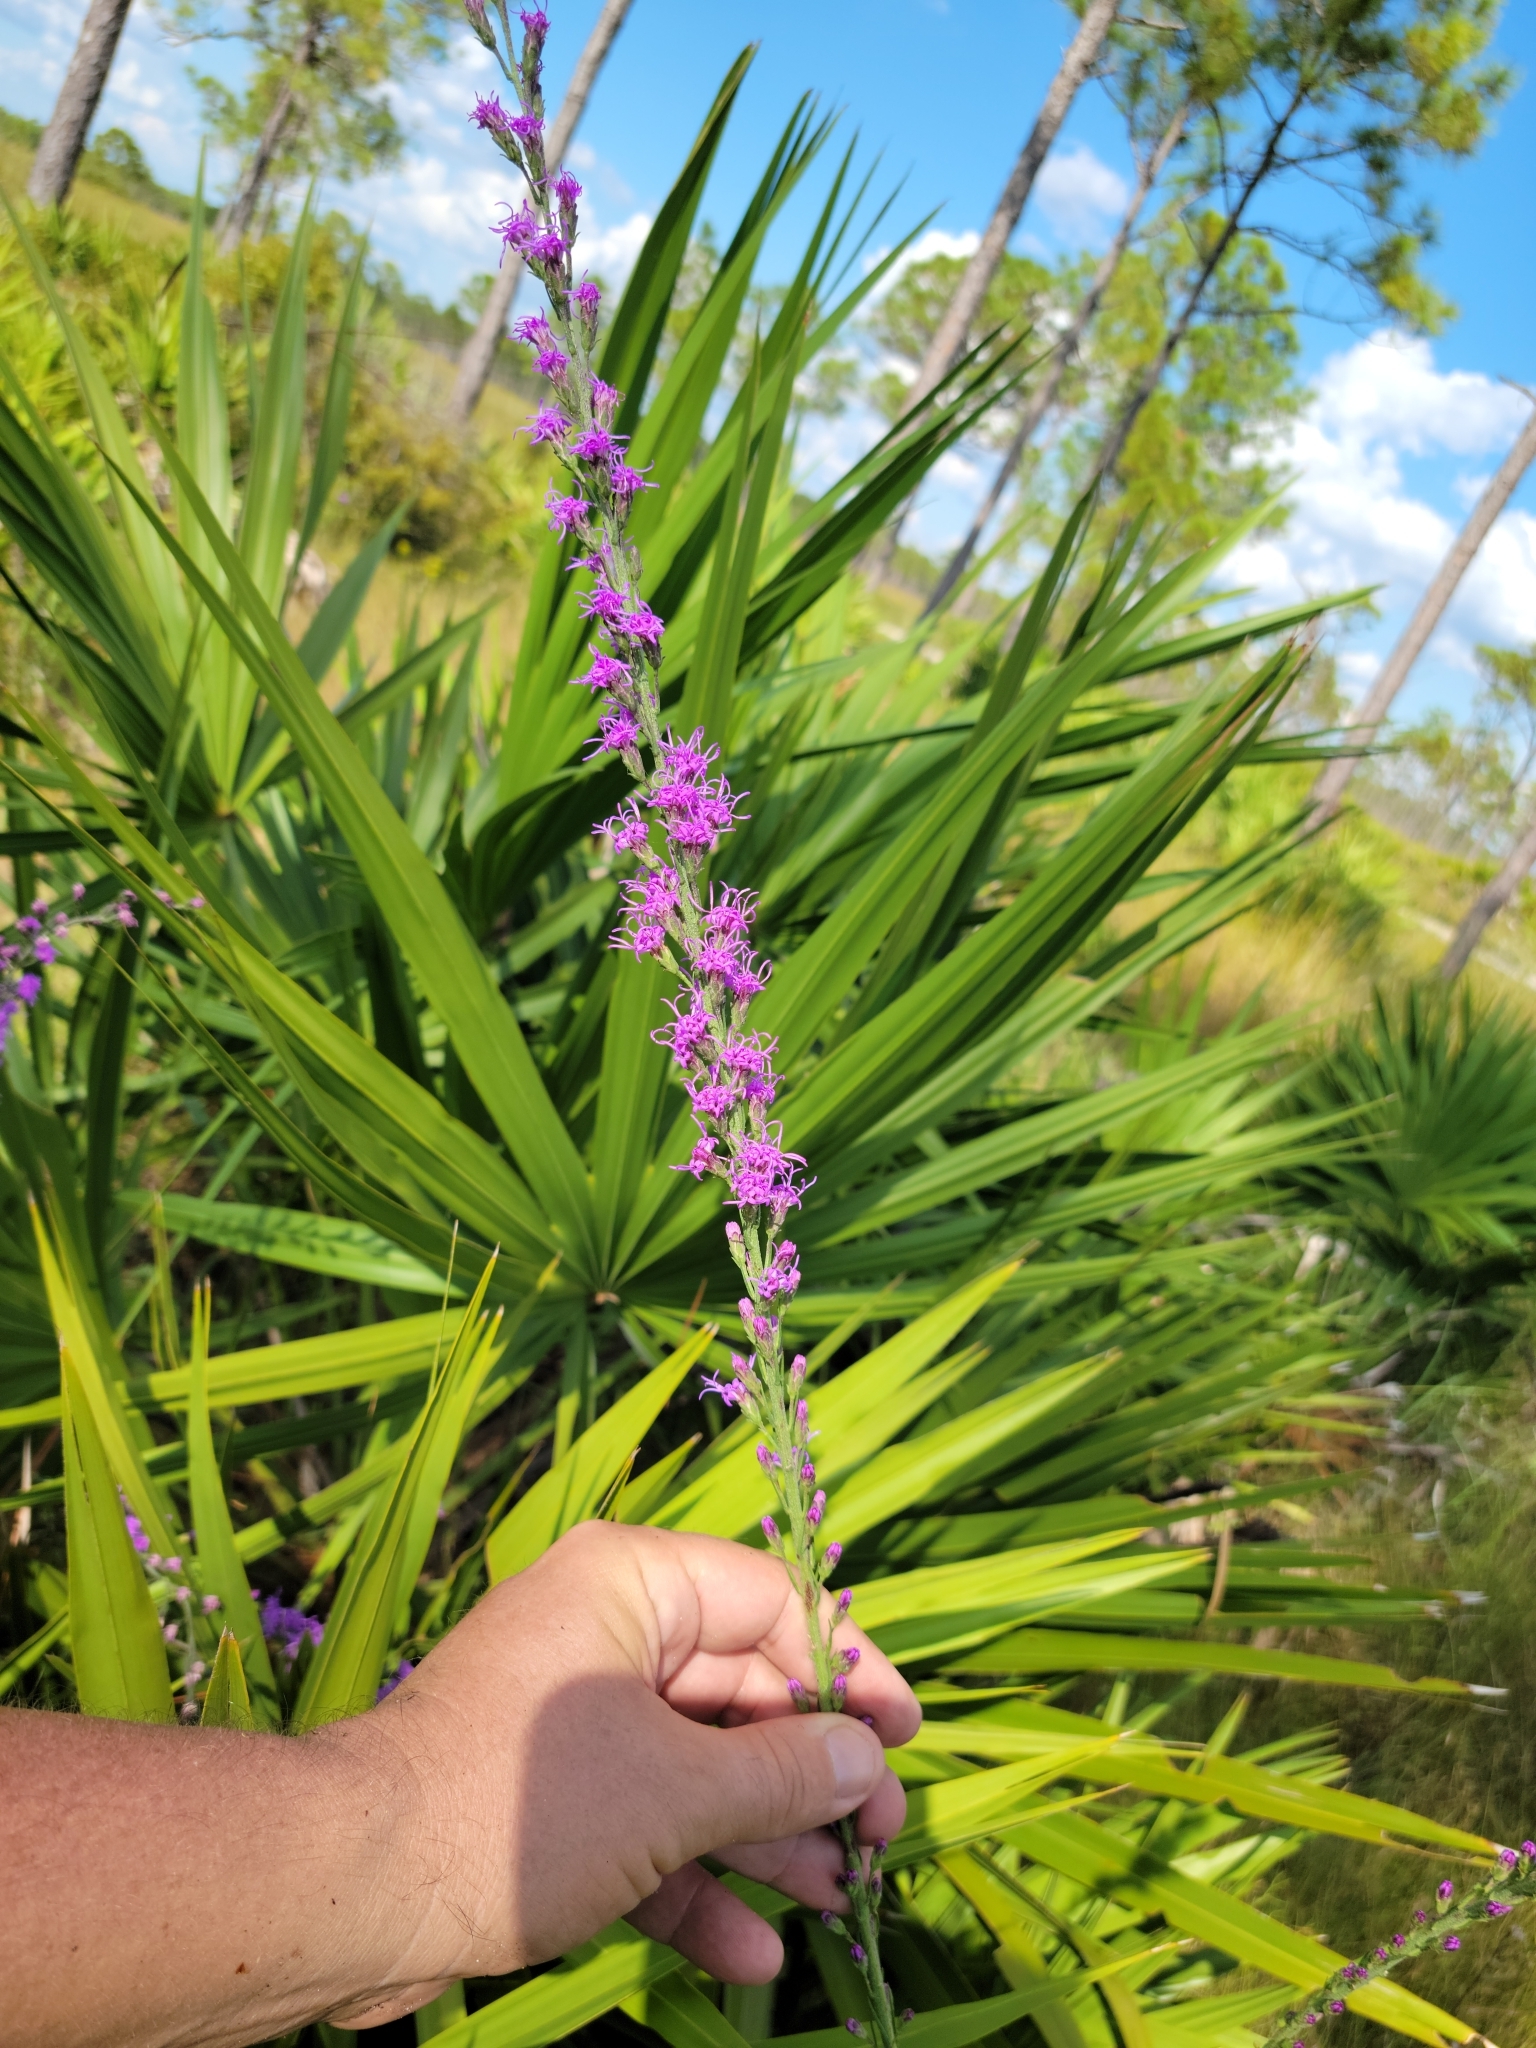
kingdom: Plantae
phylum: Tracheophyta
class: Magnoliopsida
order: Asterales
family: Asteraceae
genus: Liatris
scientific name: Liatris gracilis
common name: Slender gayfeather
